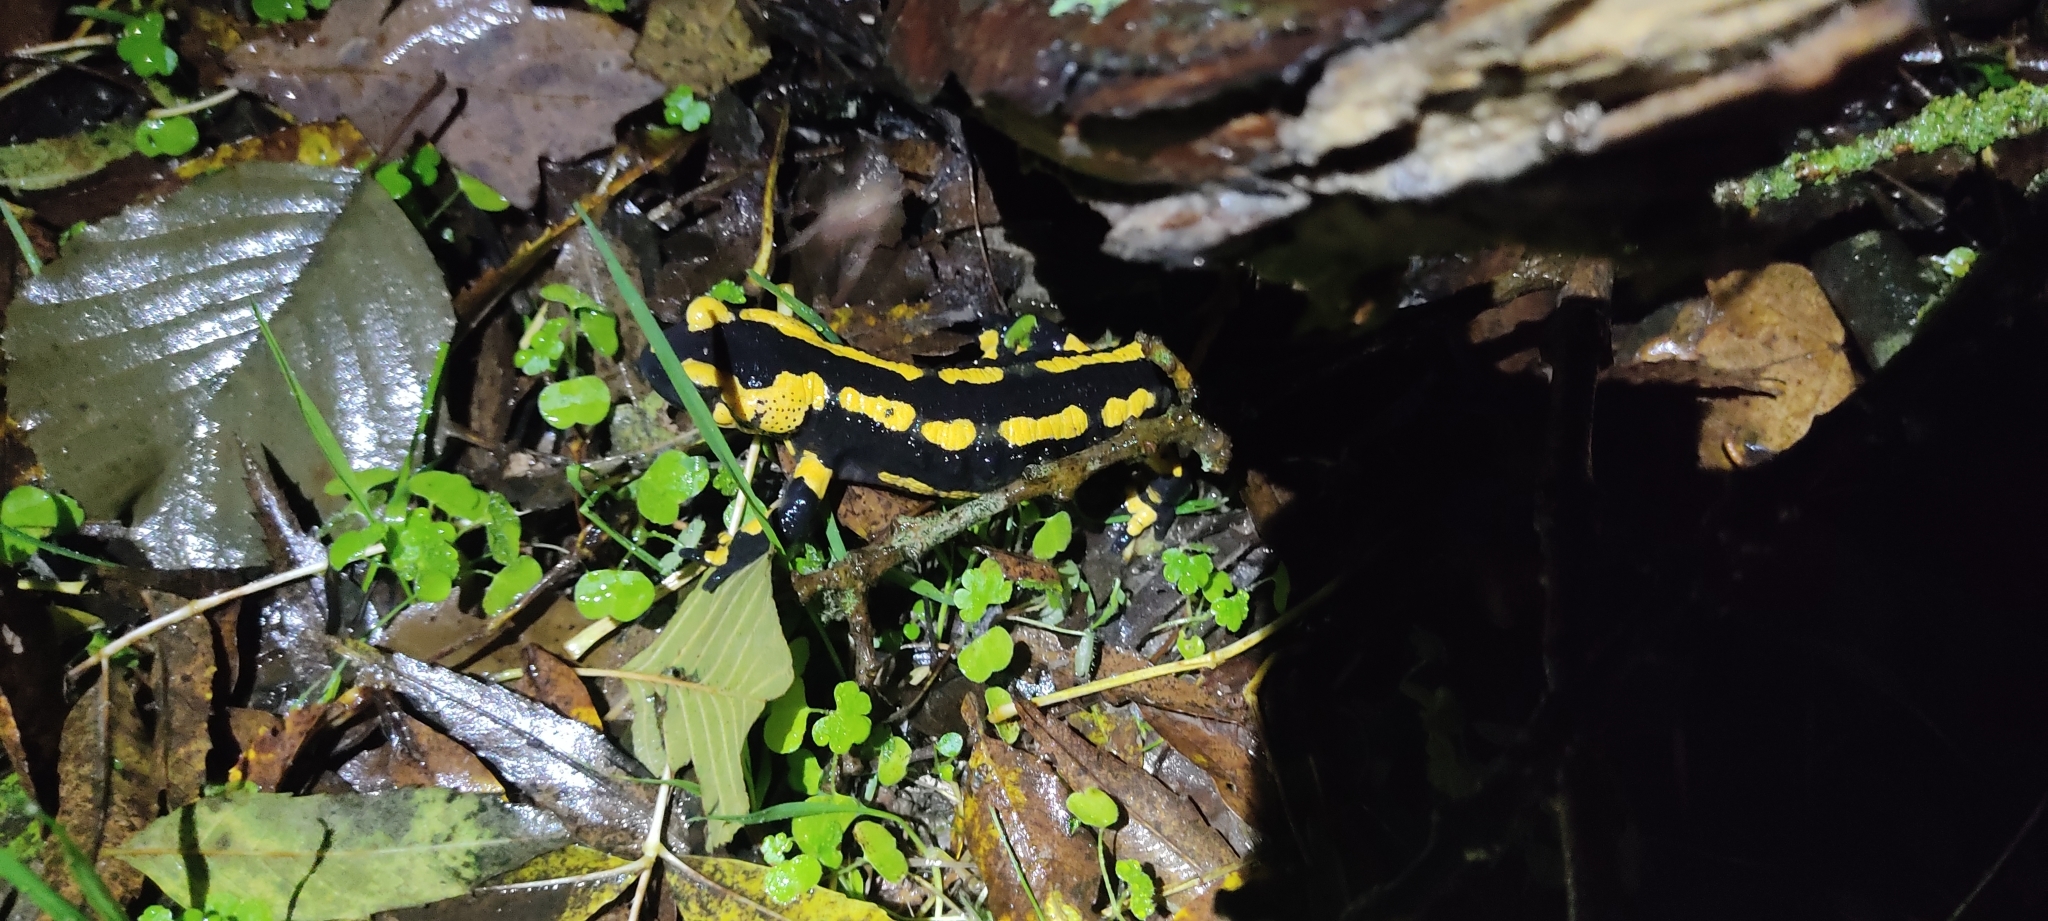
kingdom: Animalia
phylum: Chordata
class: Amphibia
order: Caudata
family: Salamandridae
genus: Salamandra
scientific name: Salamandra salamandra
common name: Fire salamander
